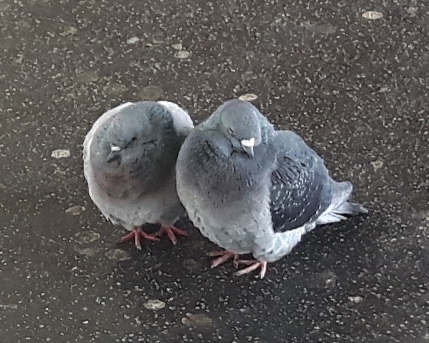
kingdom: Animalia
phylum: Chordata
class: Aves
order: Columbiformes
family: Columbidae
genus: Columba
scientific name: Columba livia
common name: Rock pigeon
